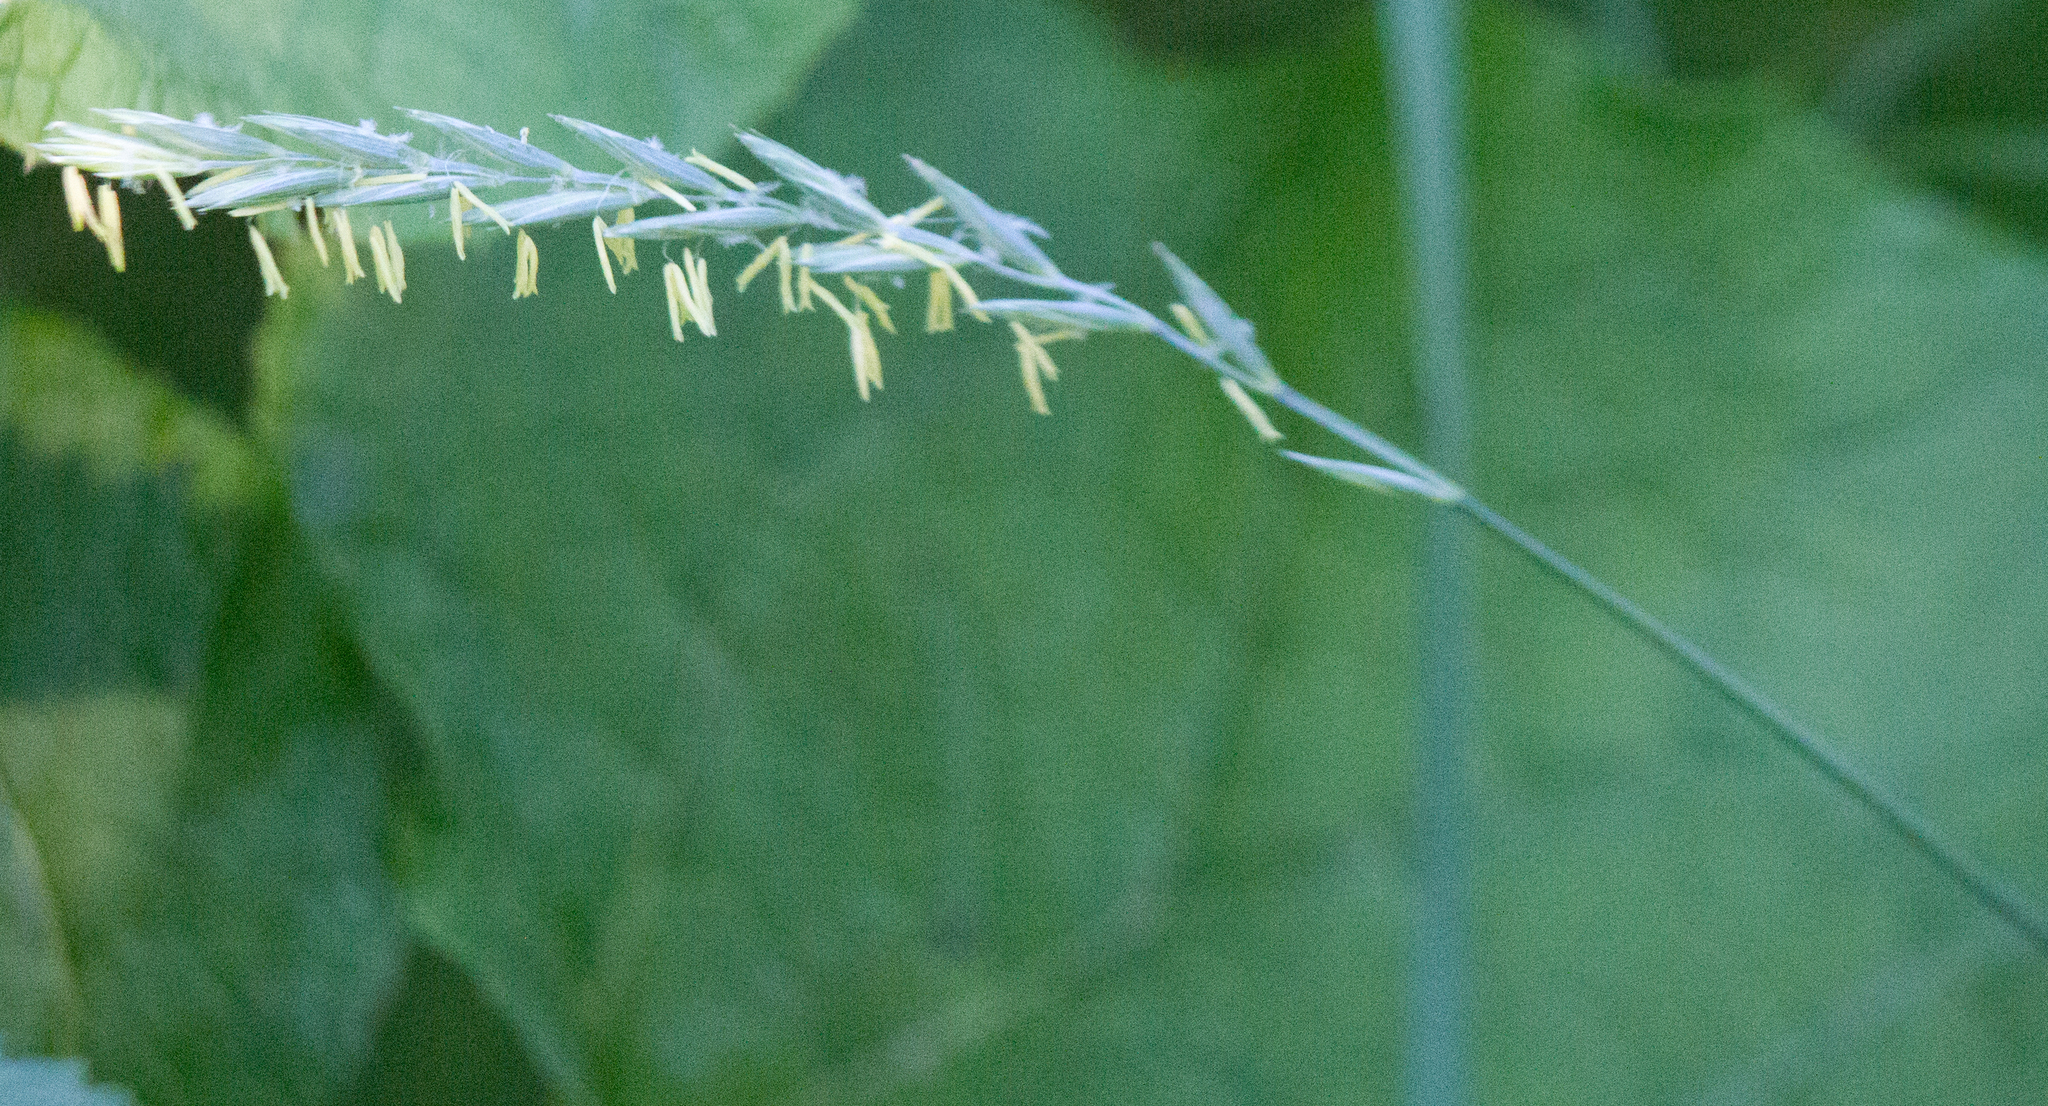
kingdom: Plantae
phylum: Tracheophyta
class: Liliopsida
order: Poales
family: Poaceae
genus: Elymus
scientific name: Elymus repens
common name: Quackgrass
